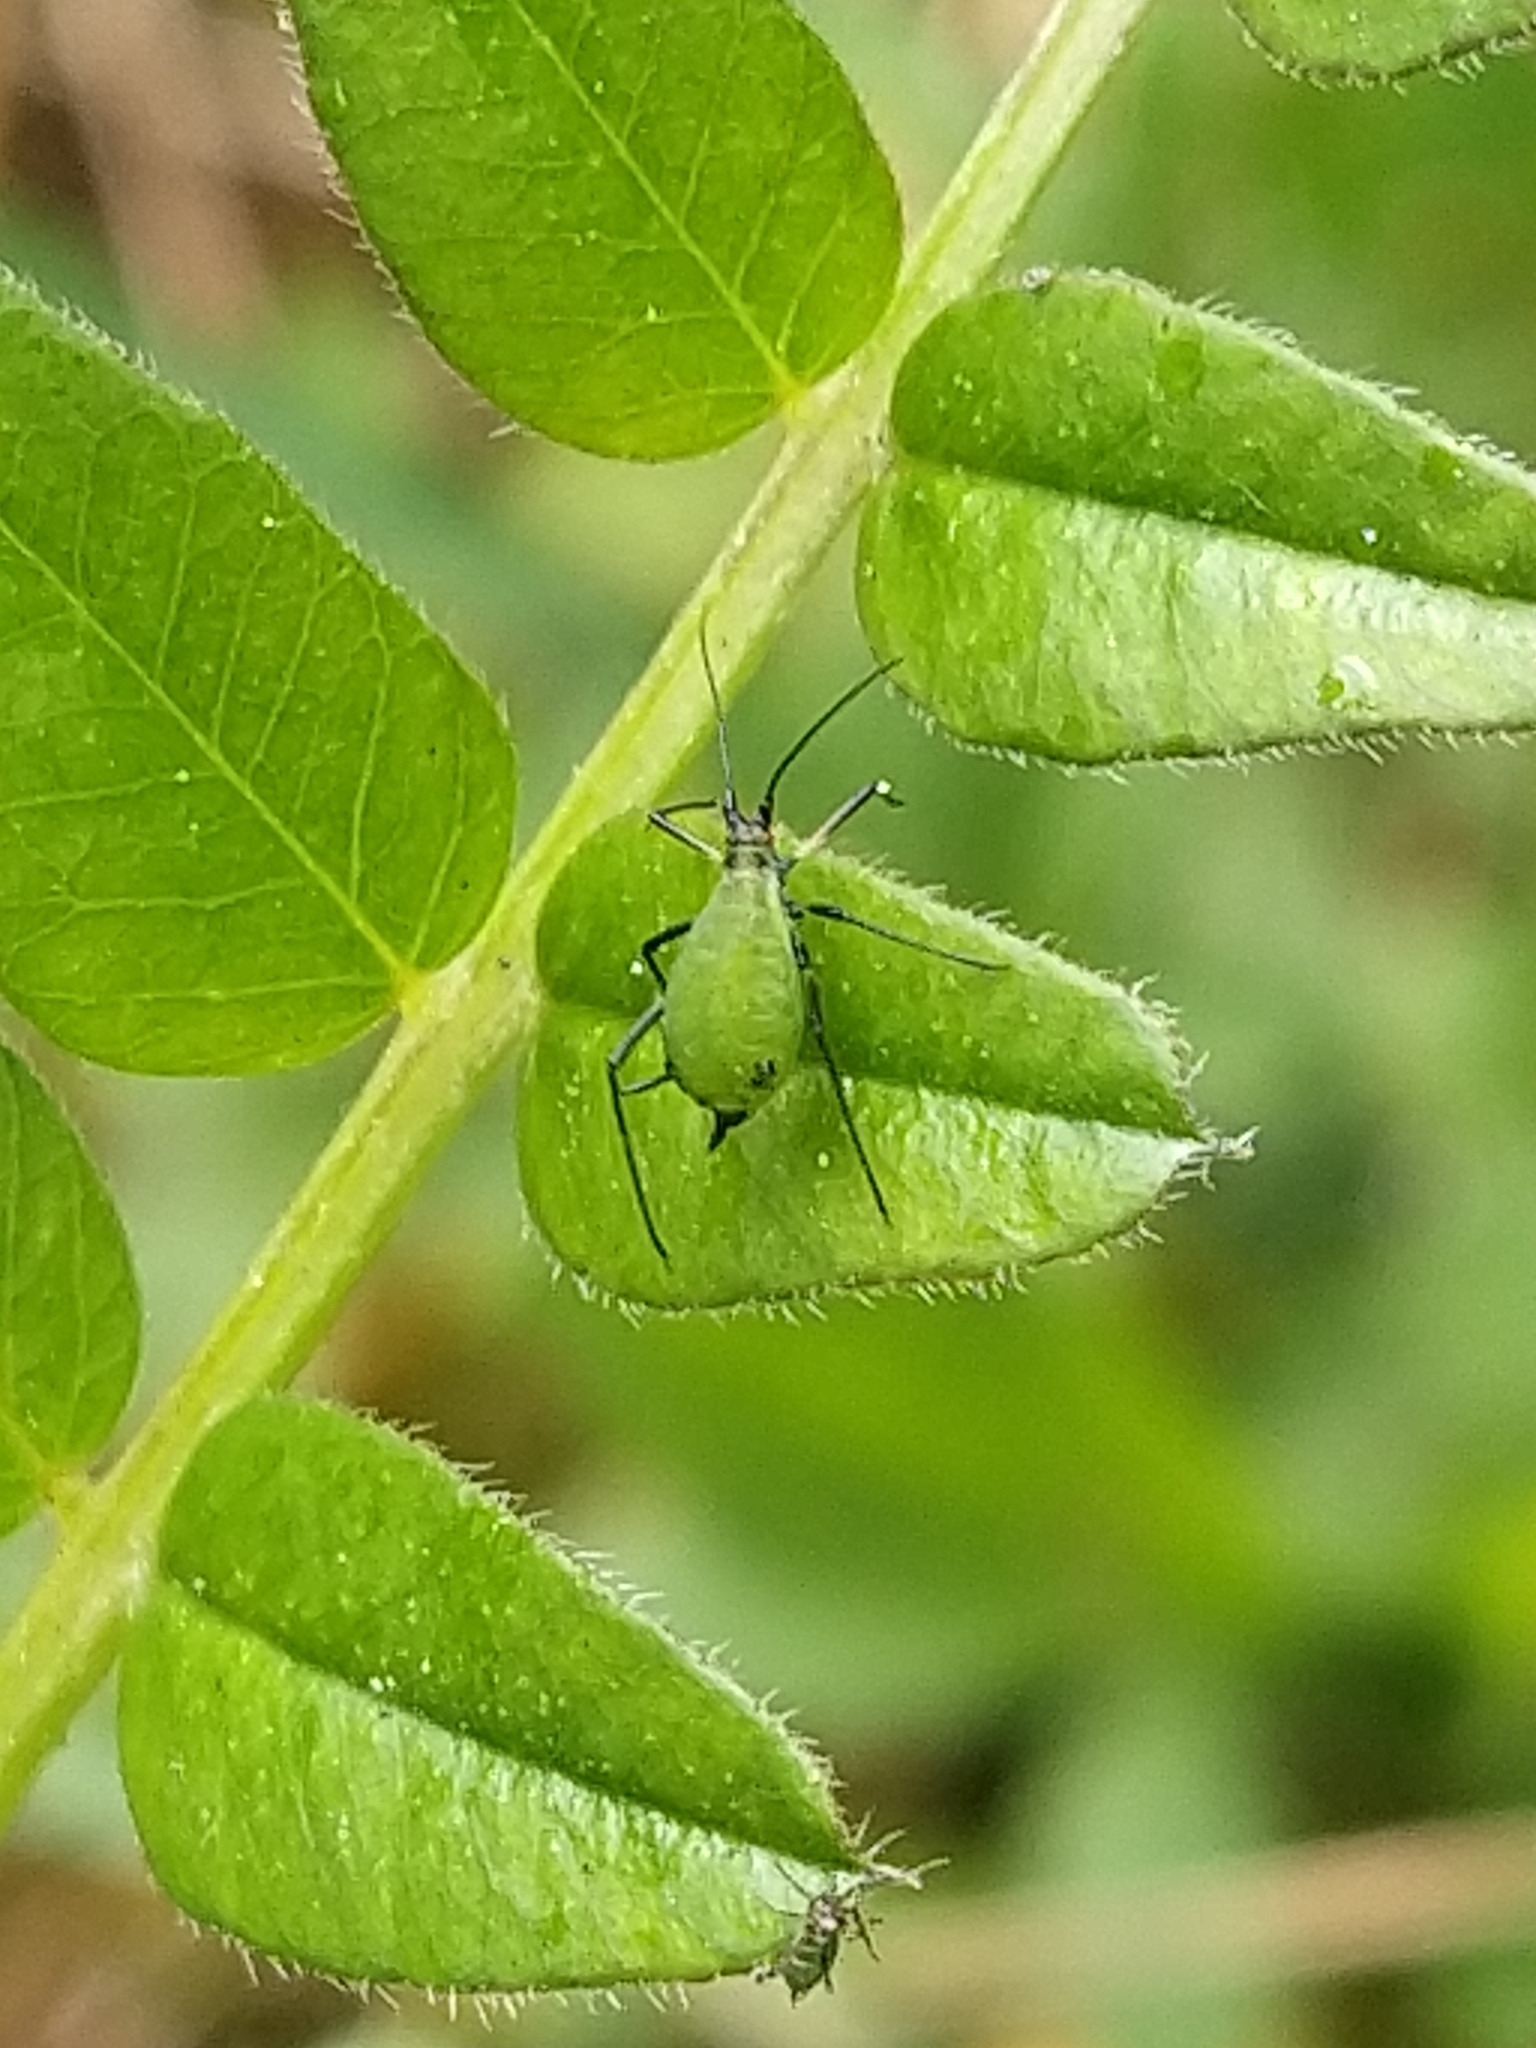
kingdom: Animalia
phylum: Arthropoda
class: Insecta
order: Hemiptera
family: Aphididae
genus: Megoura
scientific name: Megoura viciae
